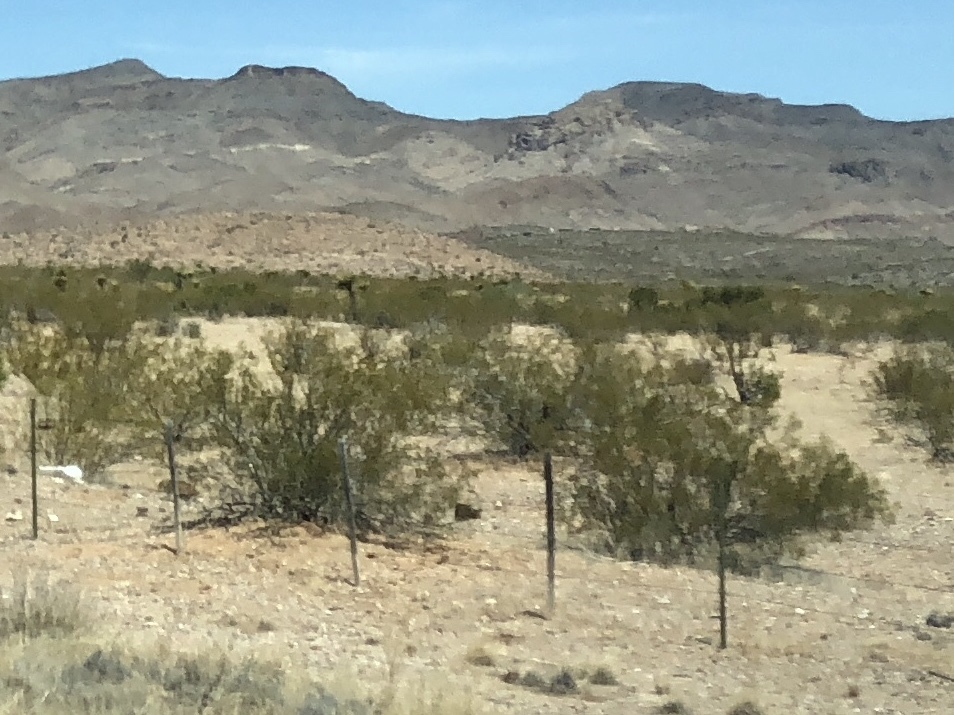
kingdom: Plantae
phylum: Tracheophyta
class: Magnoliopsida
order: Zygophyllales
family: Zygophyllaceae
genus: Larrea
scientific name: Larrea tridentata
